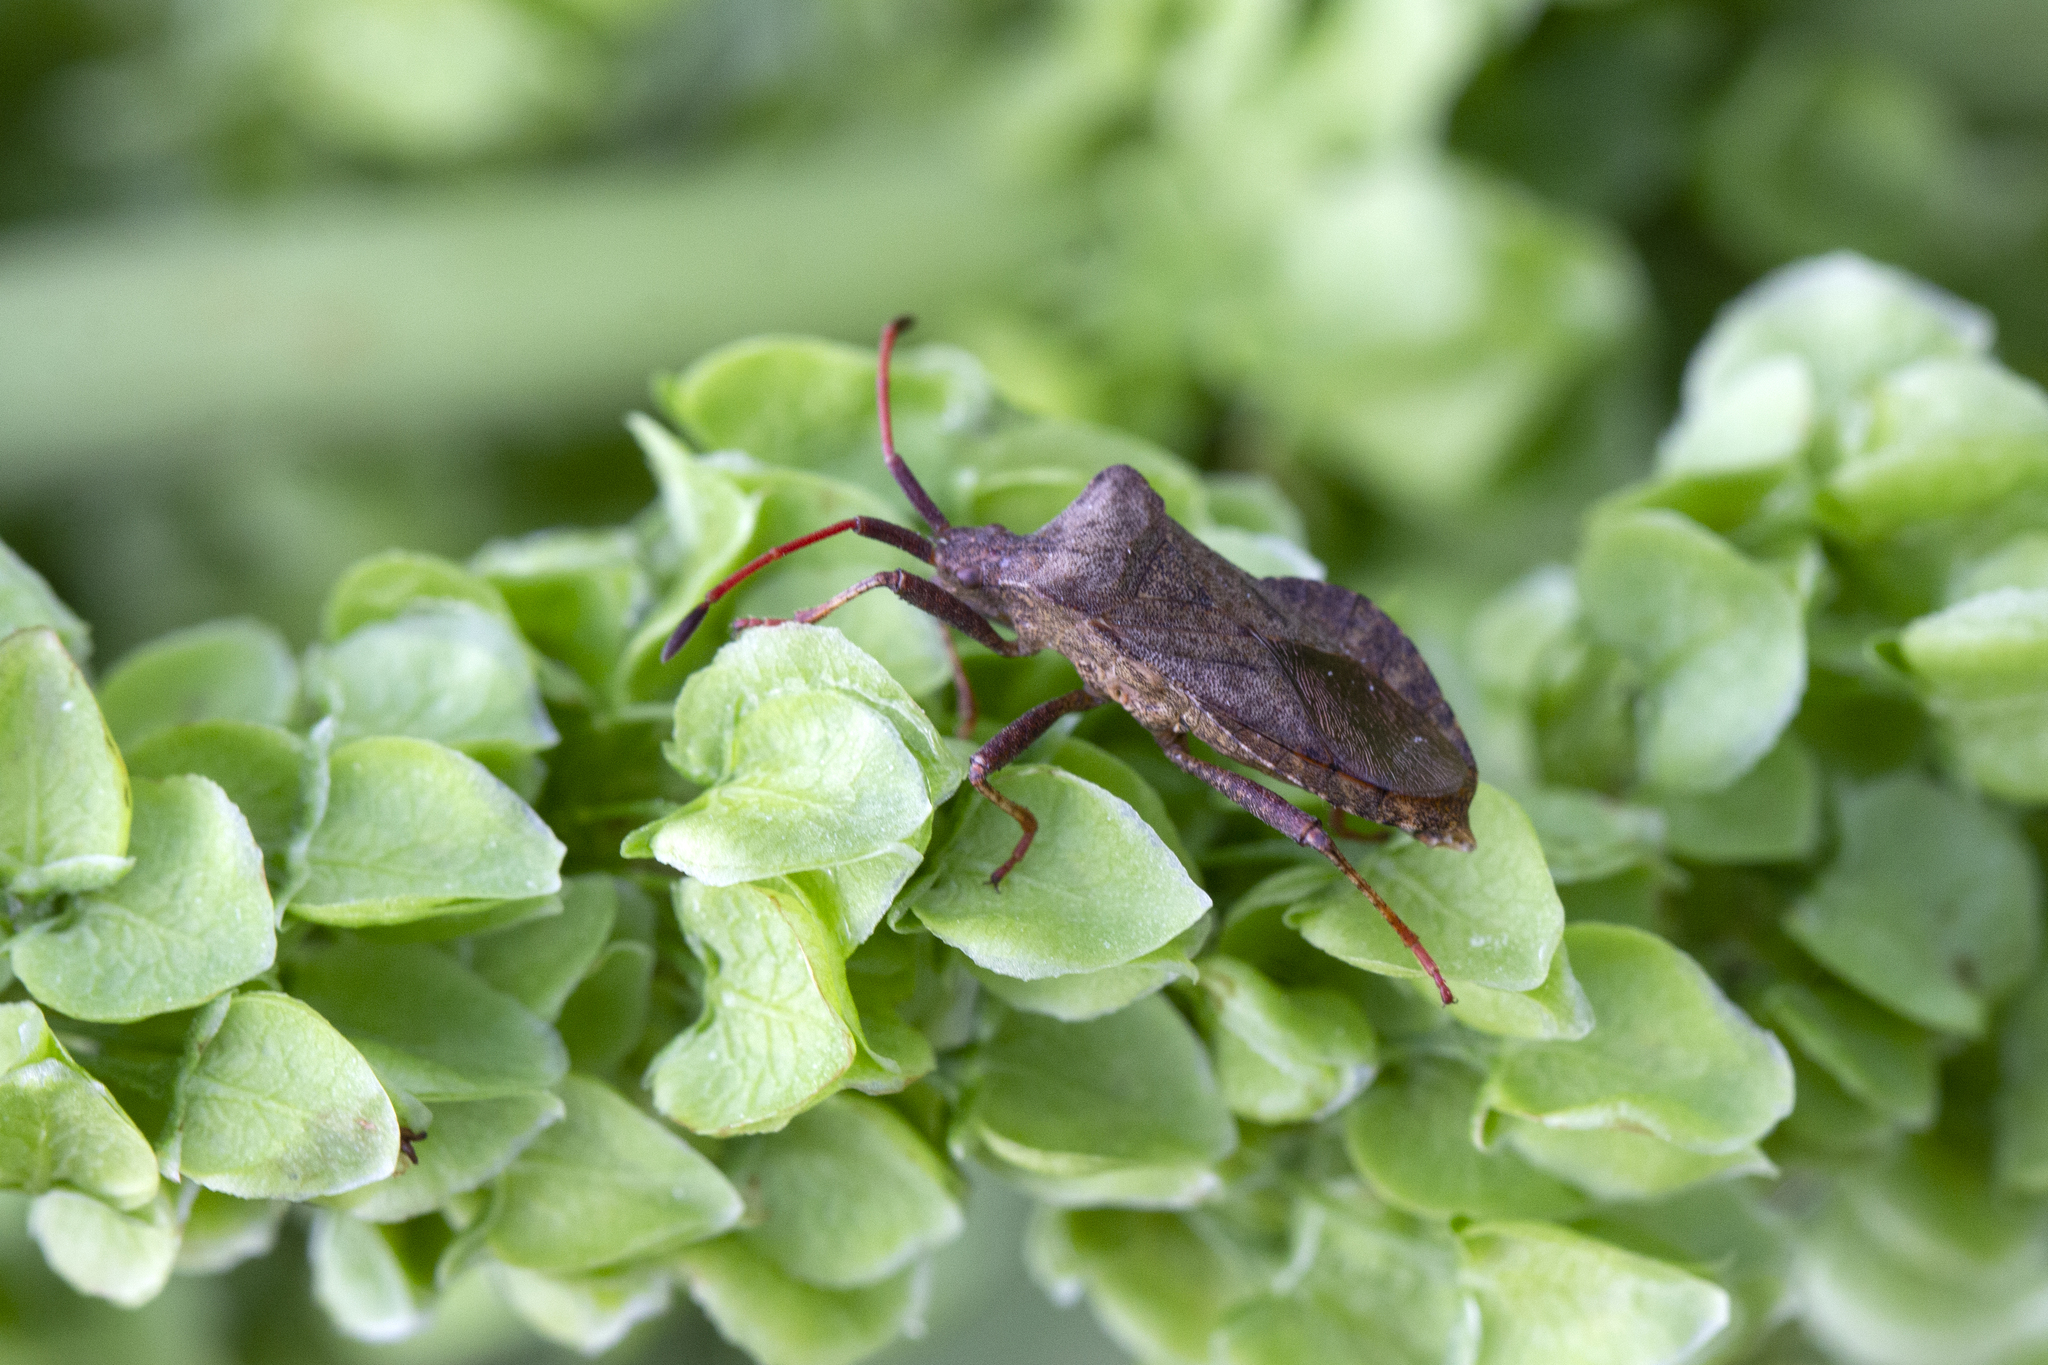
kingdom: Animalia
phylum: Arthropoda
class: Insecta
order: Hemiptera
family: Coreidae
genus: Coreus
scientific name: Coreus marginatus
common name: Dock bug
